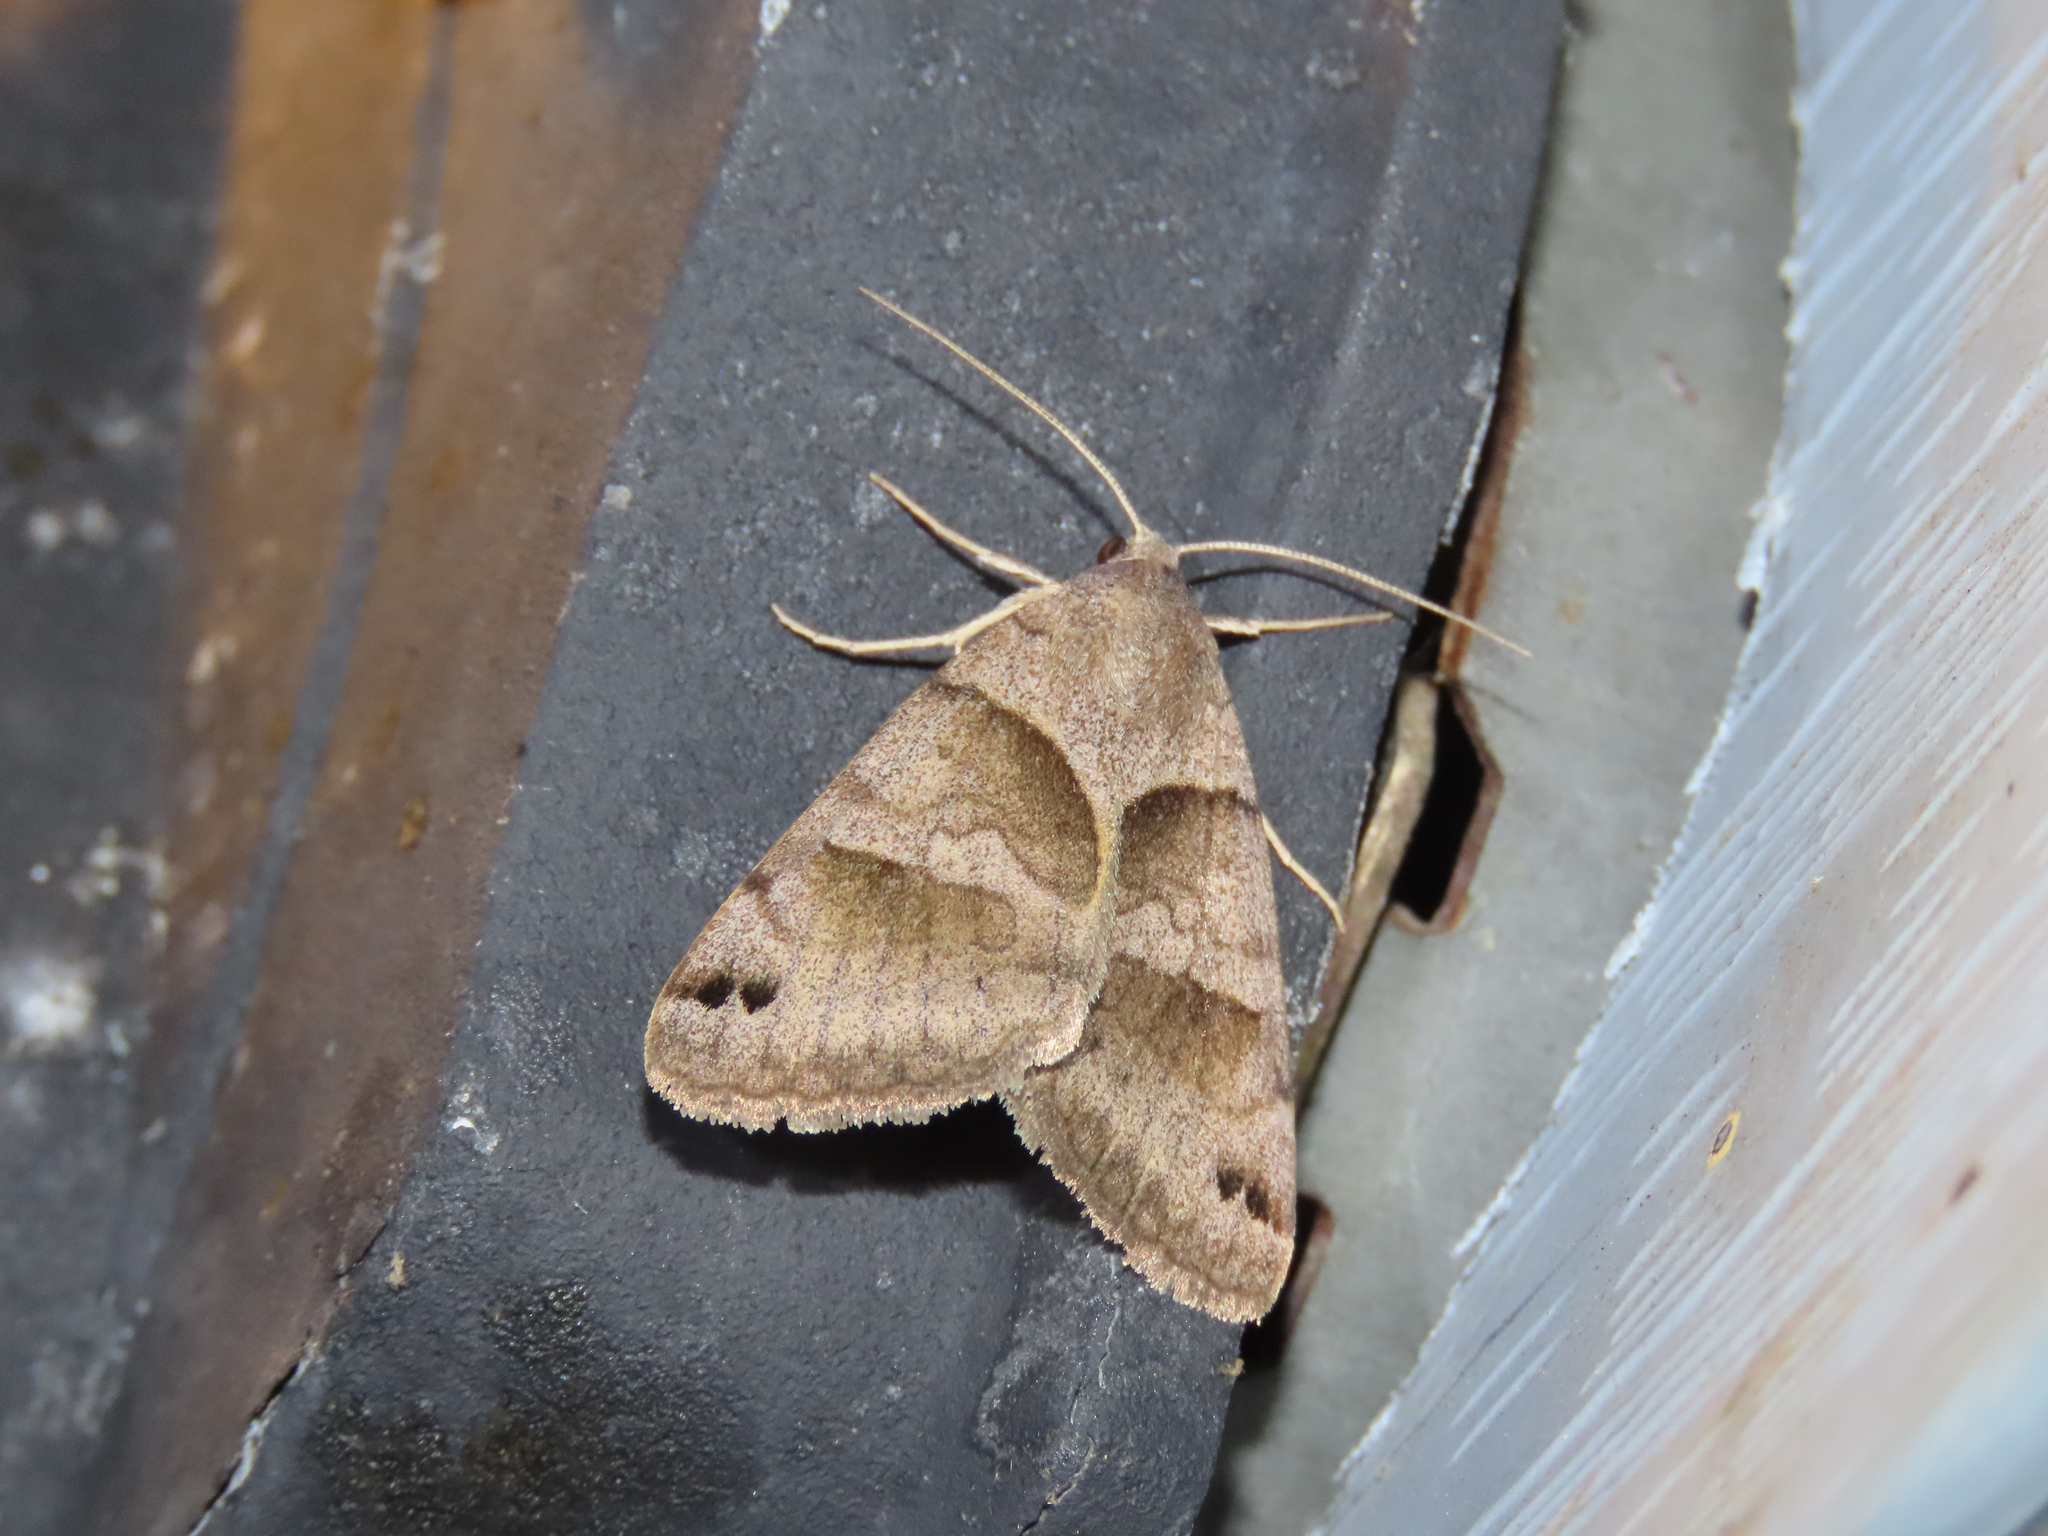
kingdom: Animalia
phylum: Arthropoda
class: Insecta
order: Lepidoptera
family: Erebidae
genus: Caenurgina
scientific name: Caenurgina erechtea
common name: Forage looper moth
